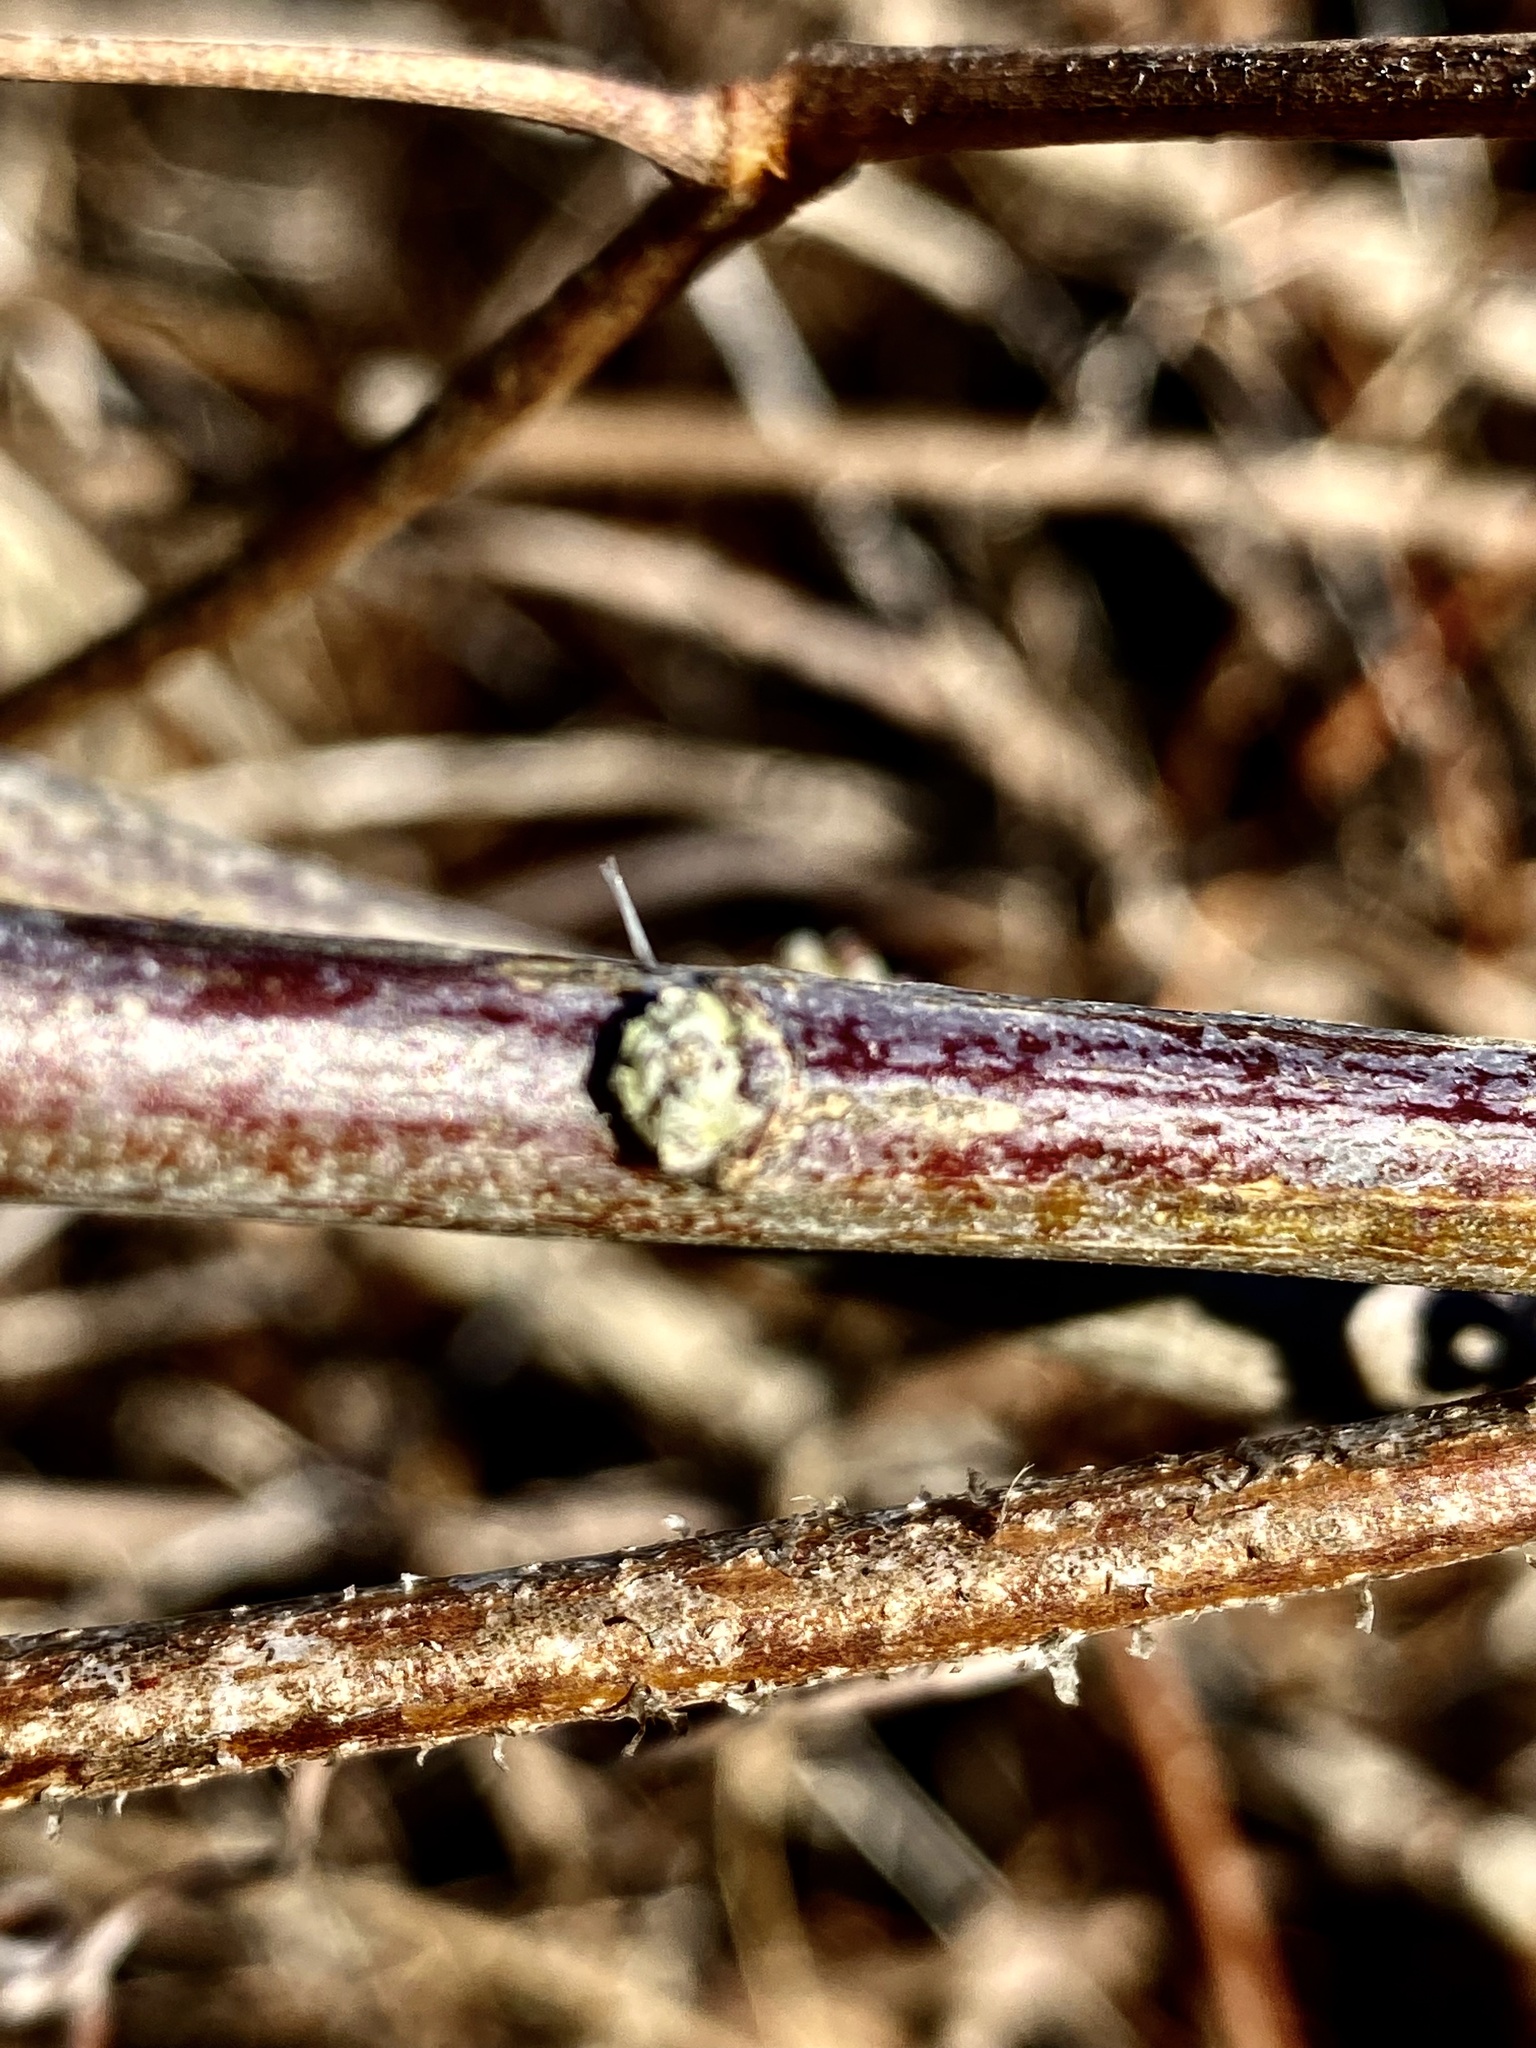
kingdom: Plantae
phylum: Tracheophyta
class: Magnoliopsida
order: Asterales
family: Asteraceae
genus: Baccharis
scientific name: Baccharis halimifolia
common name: Eastern baccharis
